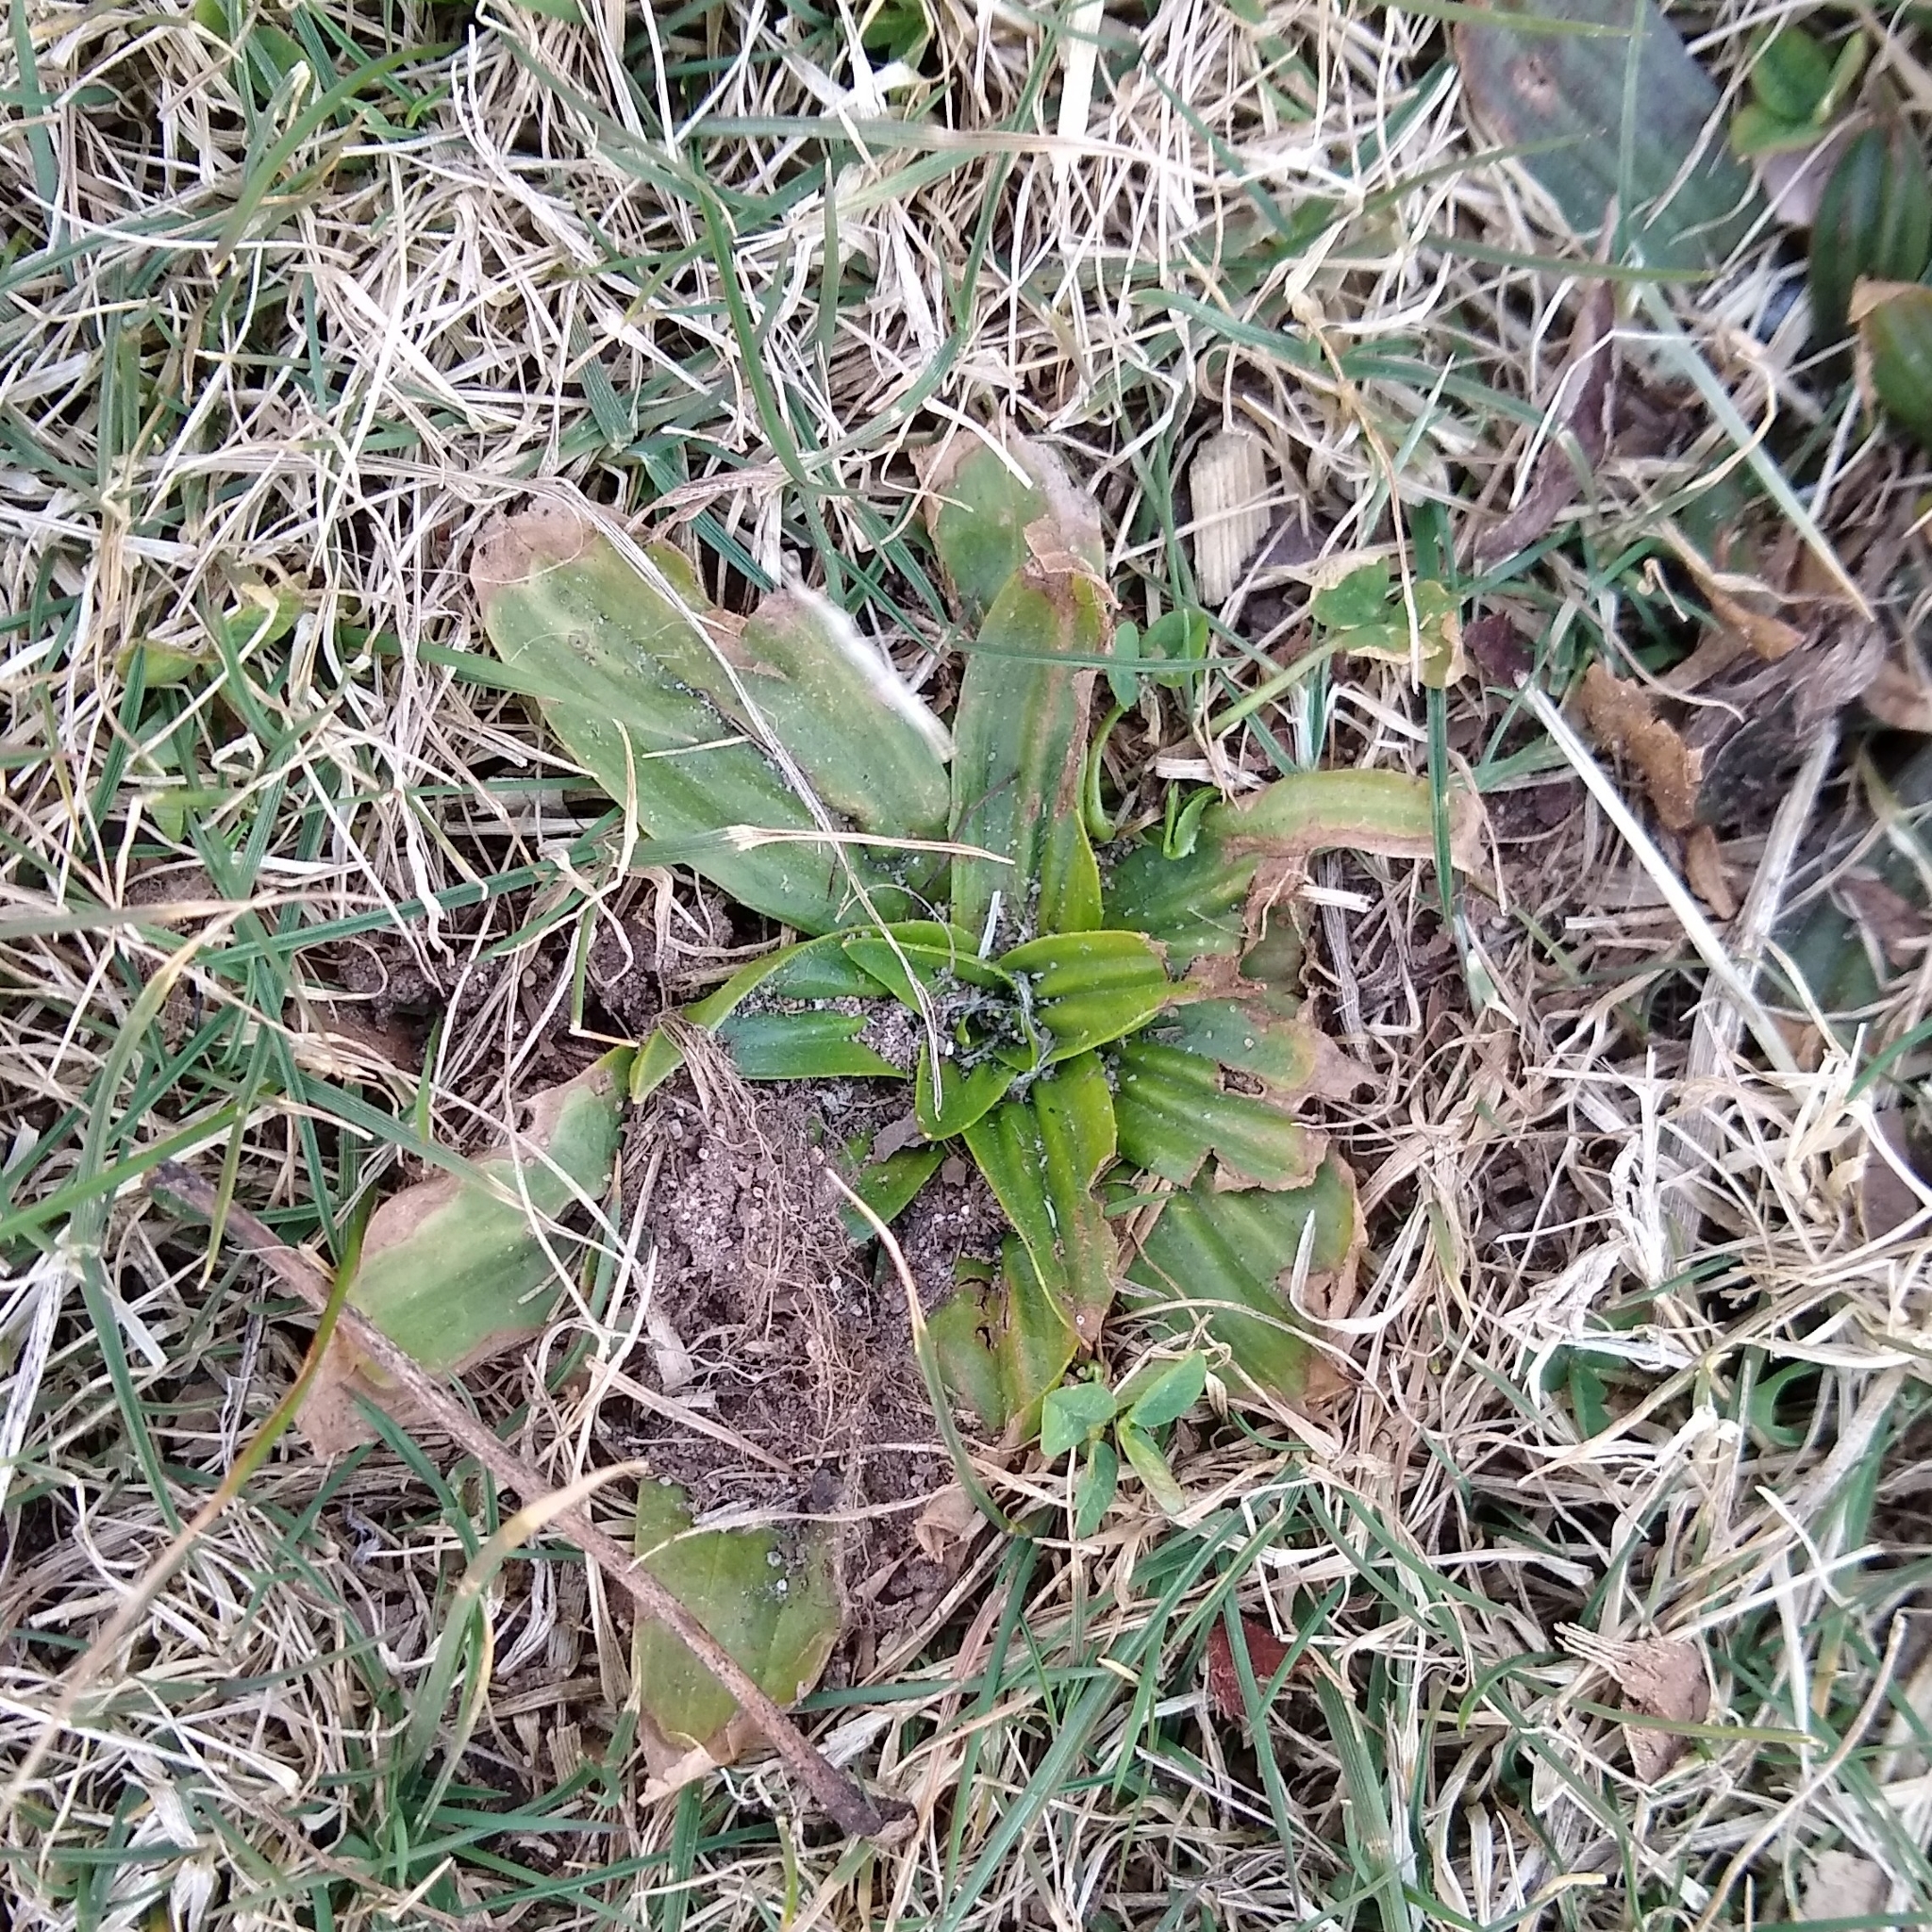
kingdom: Plantae
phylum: Tracheophyta
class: Magnoliopsida
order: Lamiales
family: Plantaginaceae
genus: Plantago
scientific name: Plantago lanceolata
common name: Ribwort plantain
